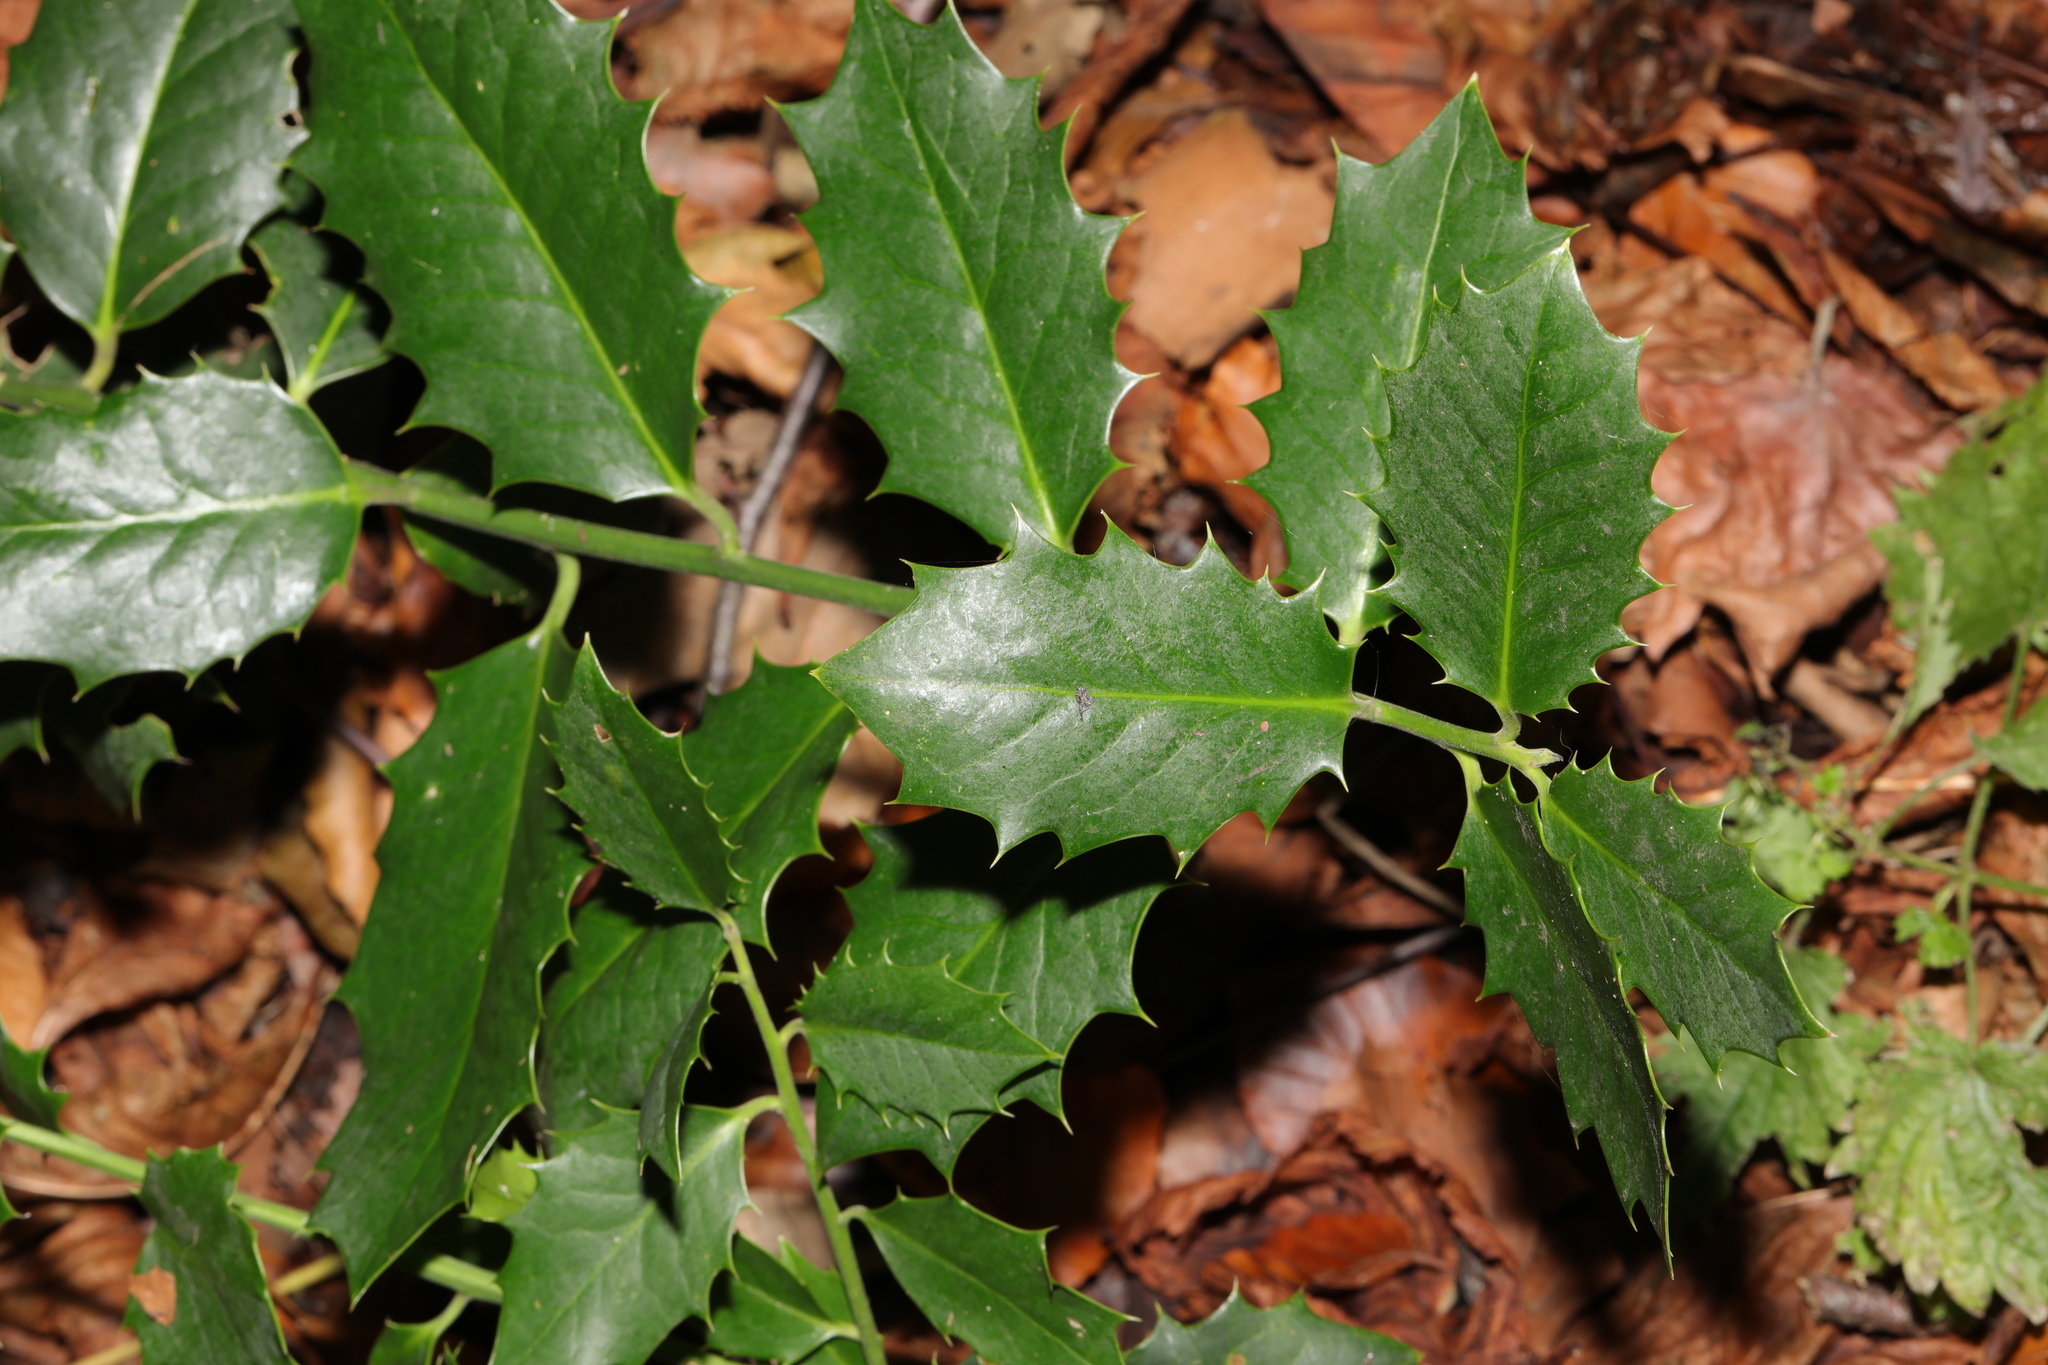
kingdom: Plantae
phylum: Tracheophyta
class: Magnoliopsida
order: Aquifoliales
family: Aquifoliaceae
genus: Ilex
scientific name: Ilex aquifolium
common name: English holly
